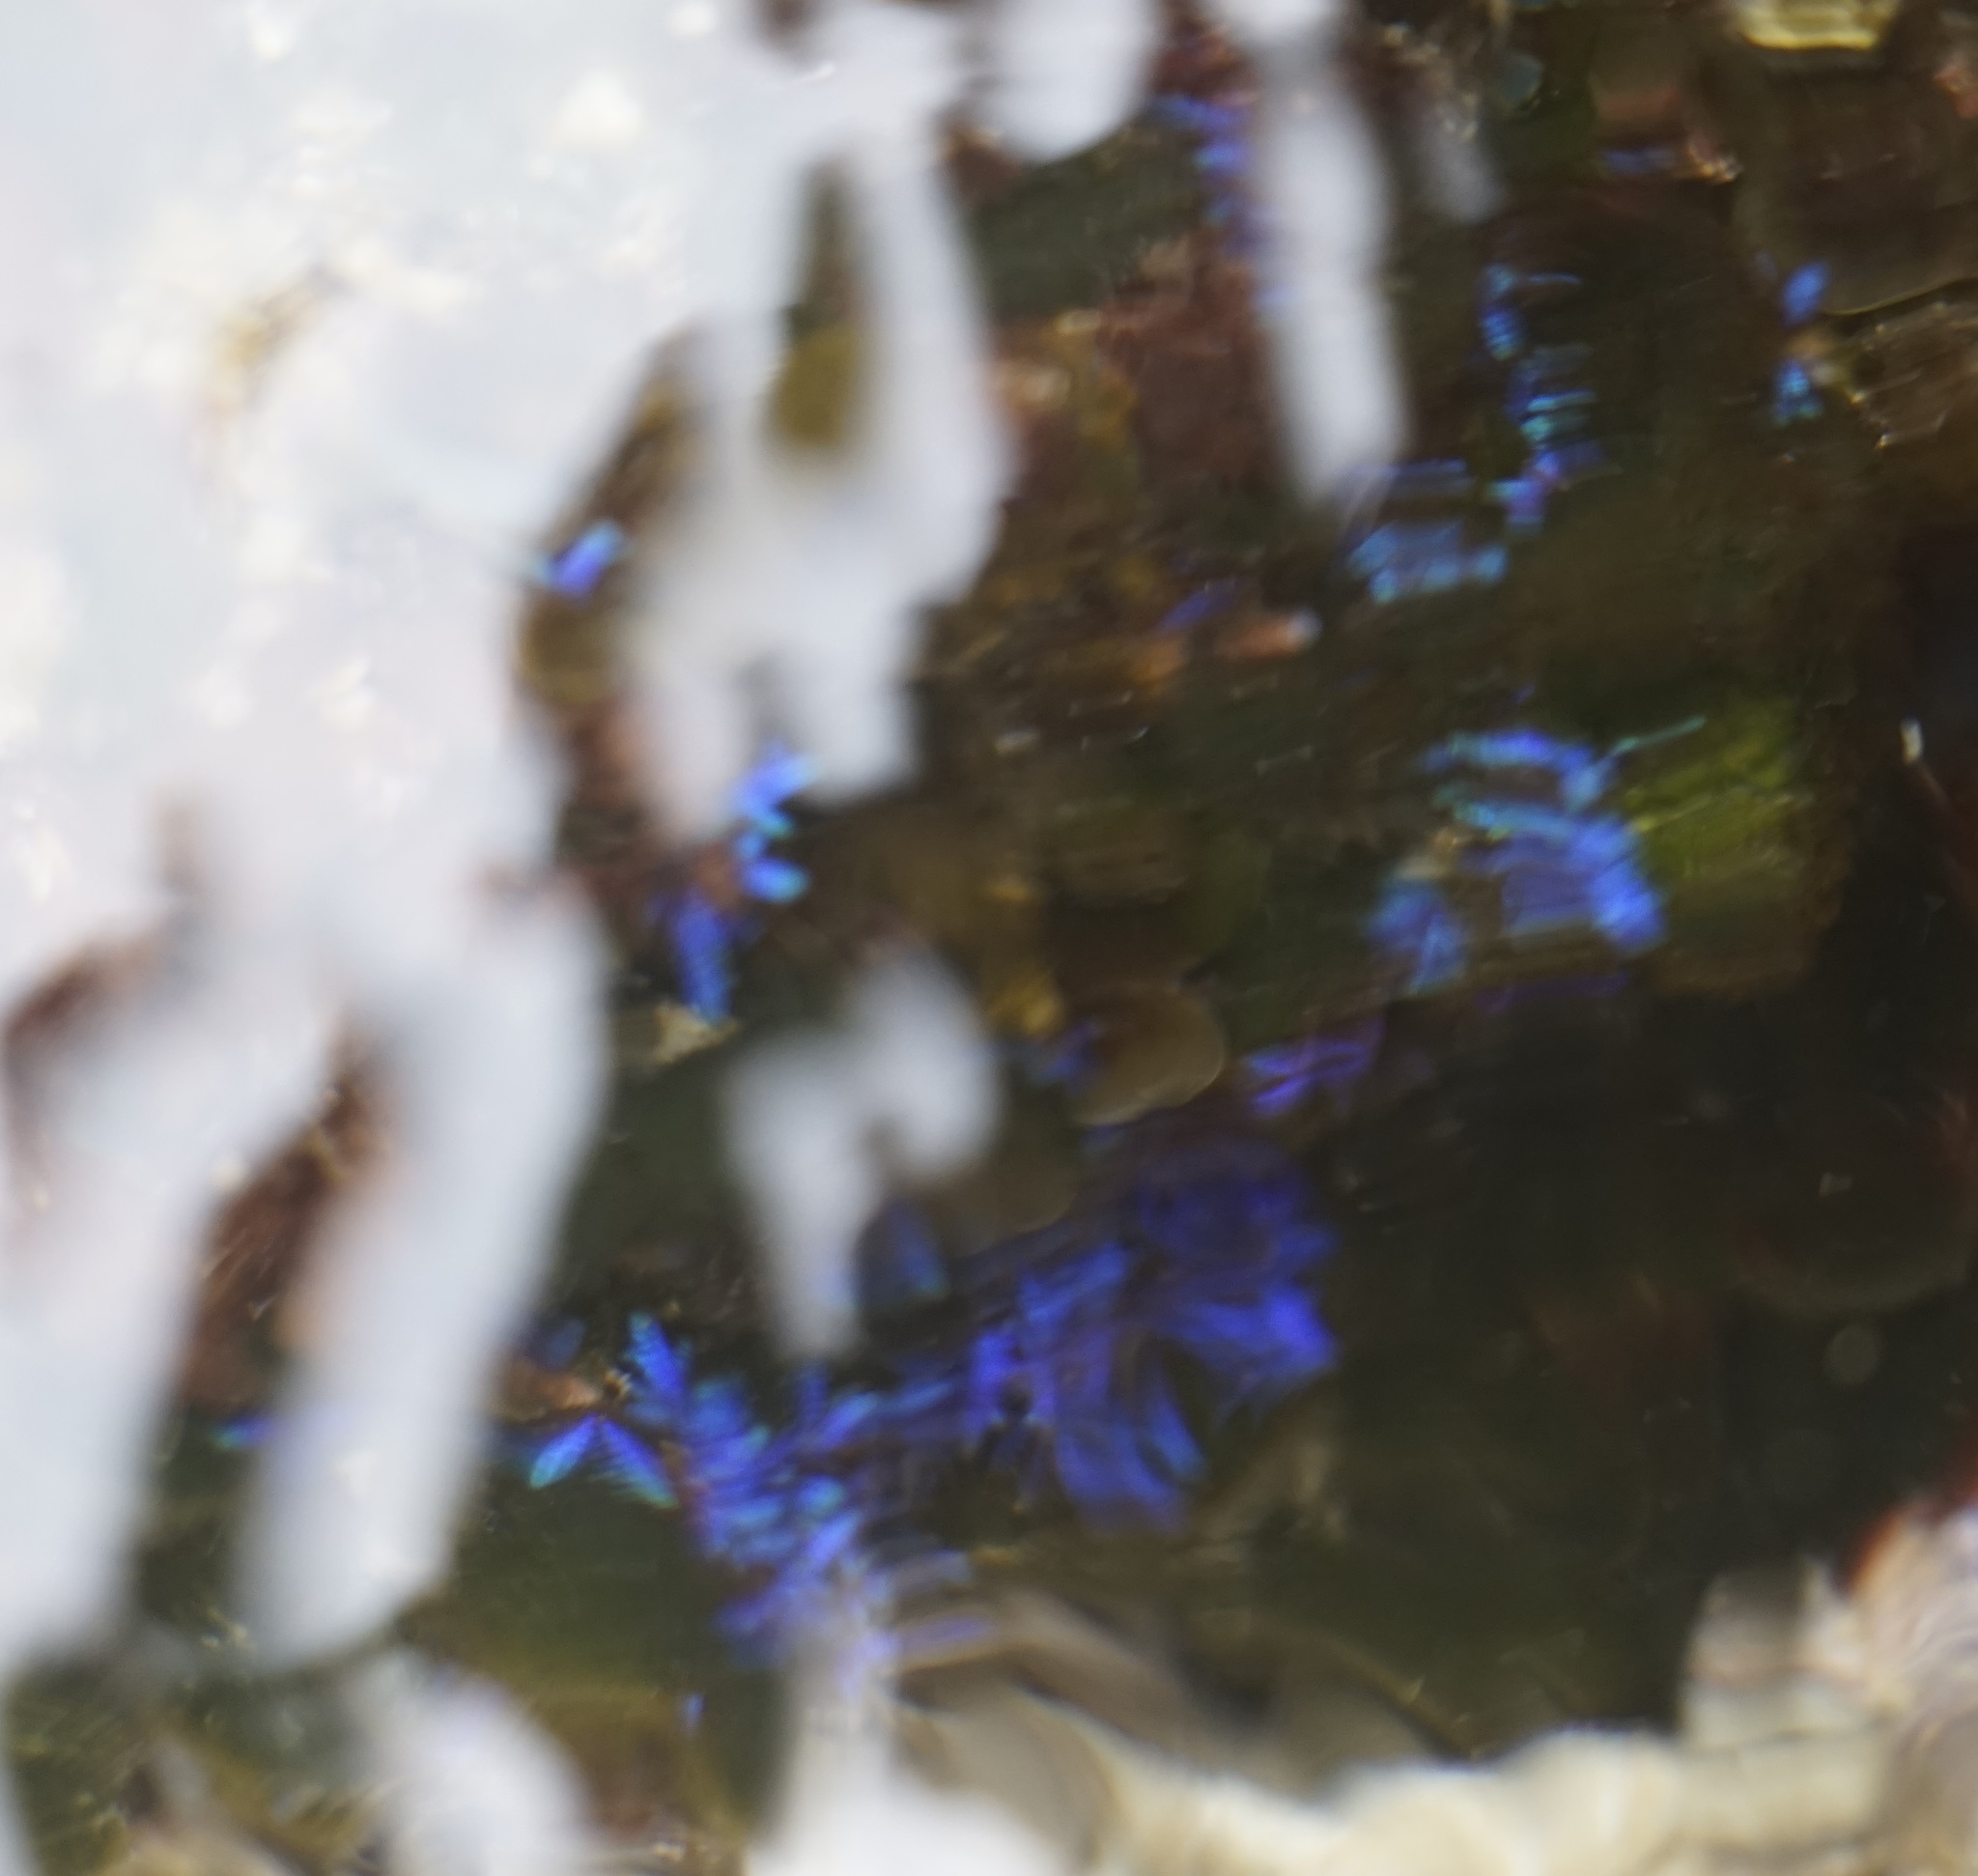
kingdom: Plantae
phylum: Rhodophyta
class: Florideophyceae
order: Rhodymeniales
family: Champiaceae
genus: Champia
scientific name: Champia laingii
